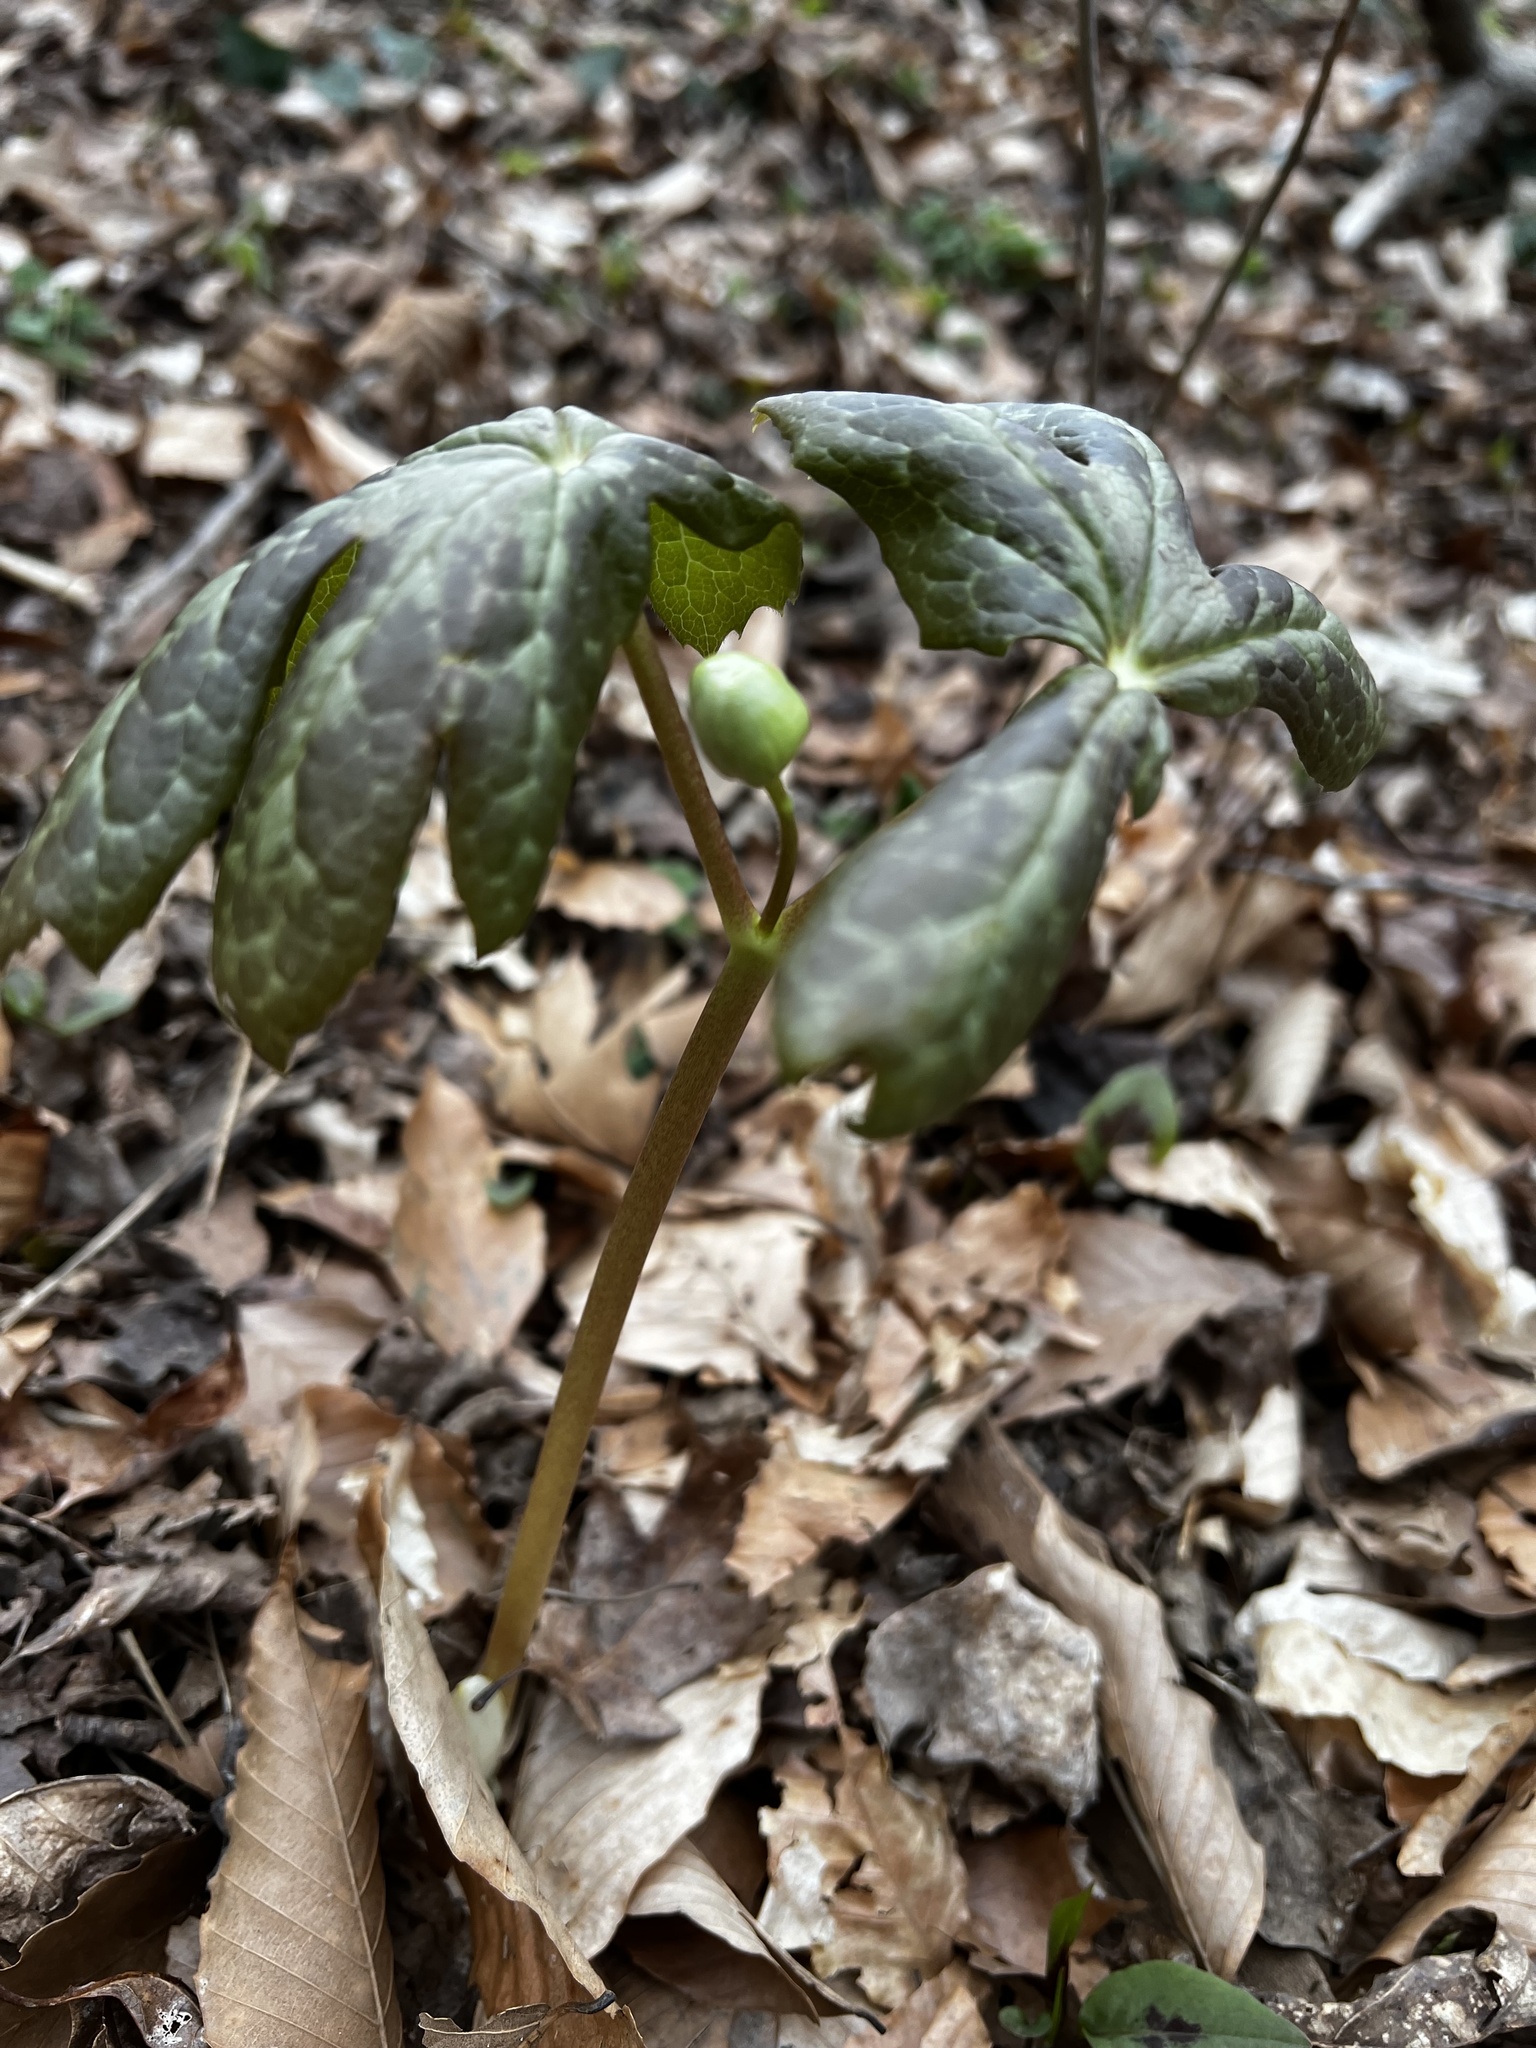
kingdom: Plantae
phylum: Tracheophyta
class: Magnoliopsida
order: Ranunculales
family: Berberidaceae
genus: Podophyllum
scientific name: Podophyllum peltatum
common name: Wild mandrake
